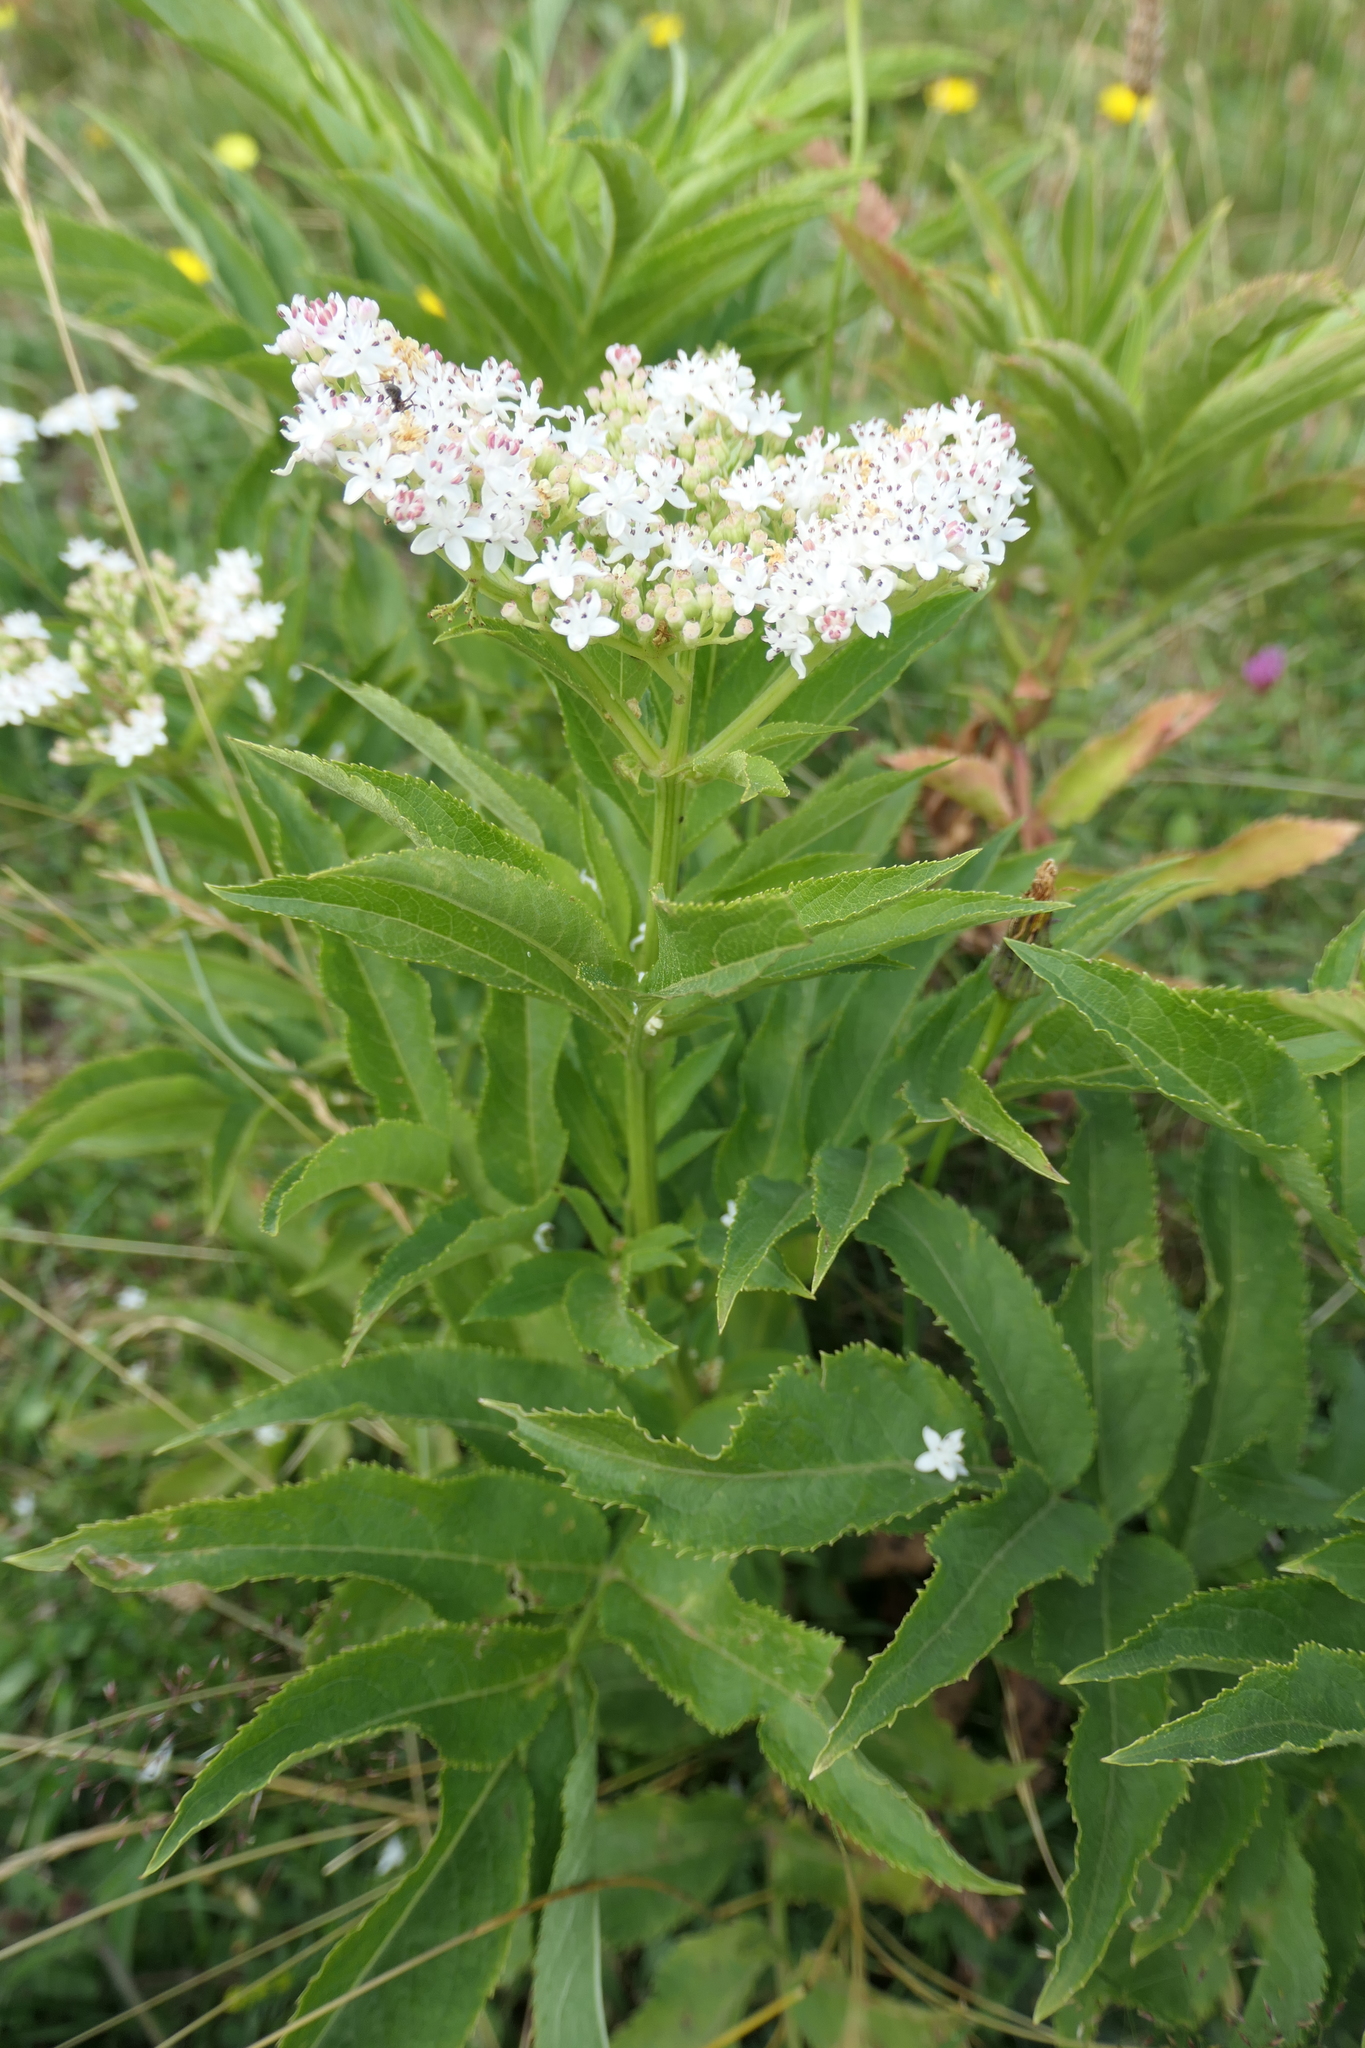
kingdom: Plantae
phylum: Tracheophyta
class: Magnoliopsida
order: Dipsacales
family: Viburnaceae
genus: Sambucus
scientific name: Sambucus ebulus
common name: Dwarf elder
